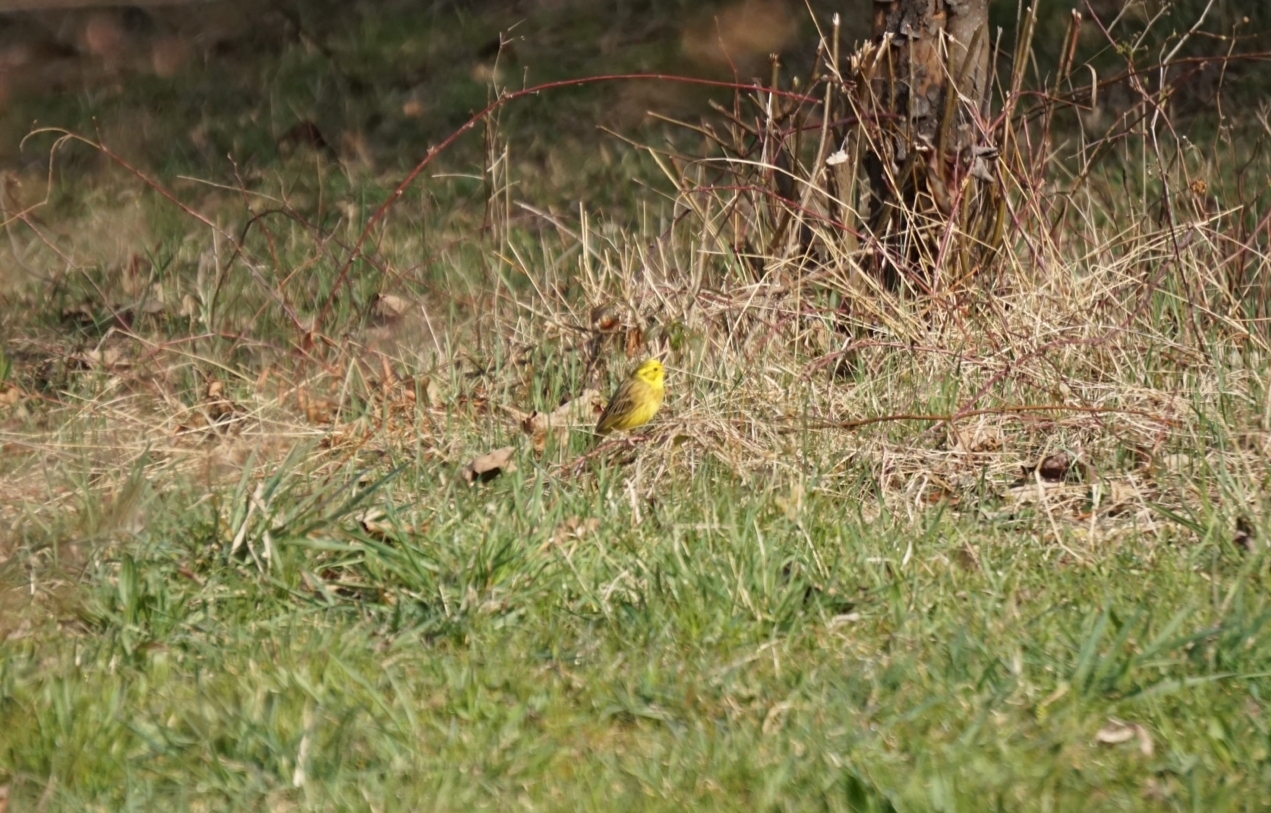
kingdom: Animalia
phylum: Chordata
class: Aves
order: Passeriformes
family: Emberizidae
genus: Emberiza
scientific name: Emberiza citrinella
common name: Yellowhammer
